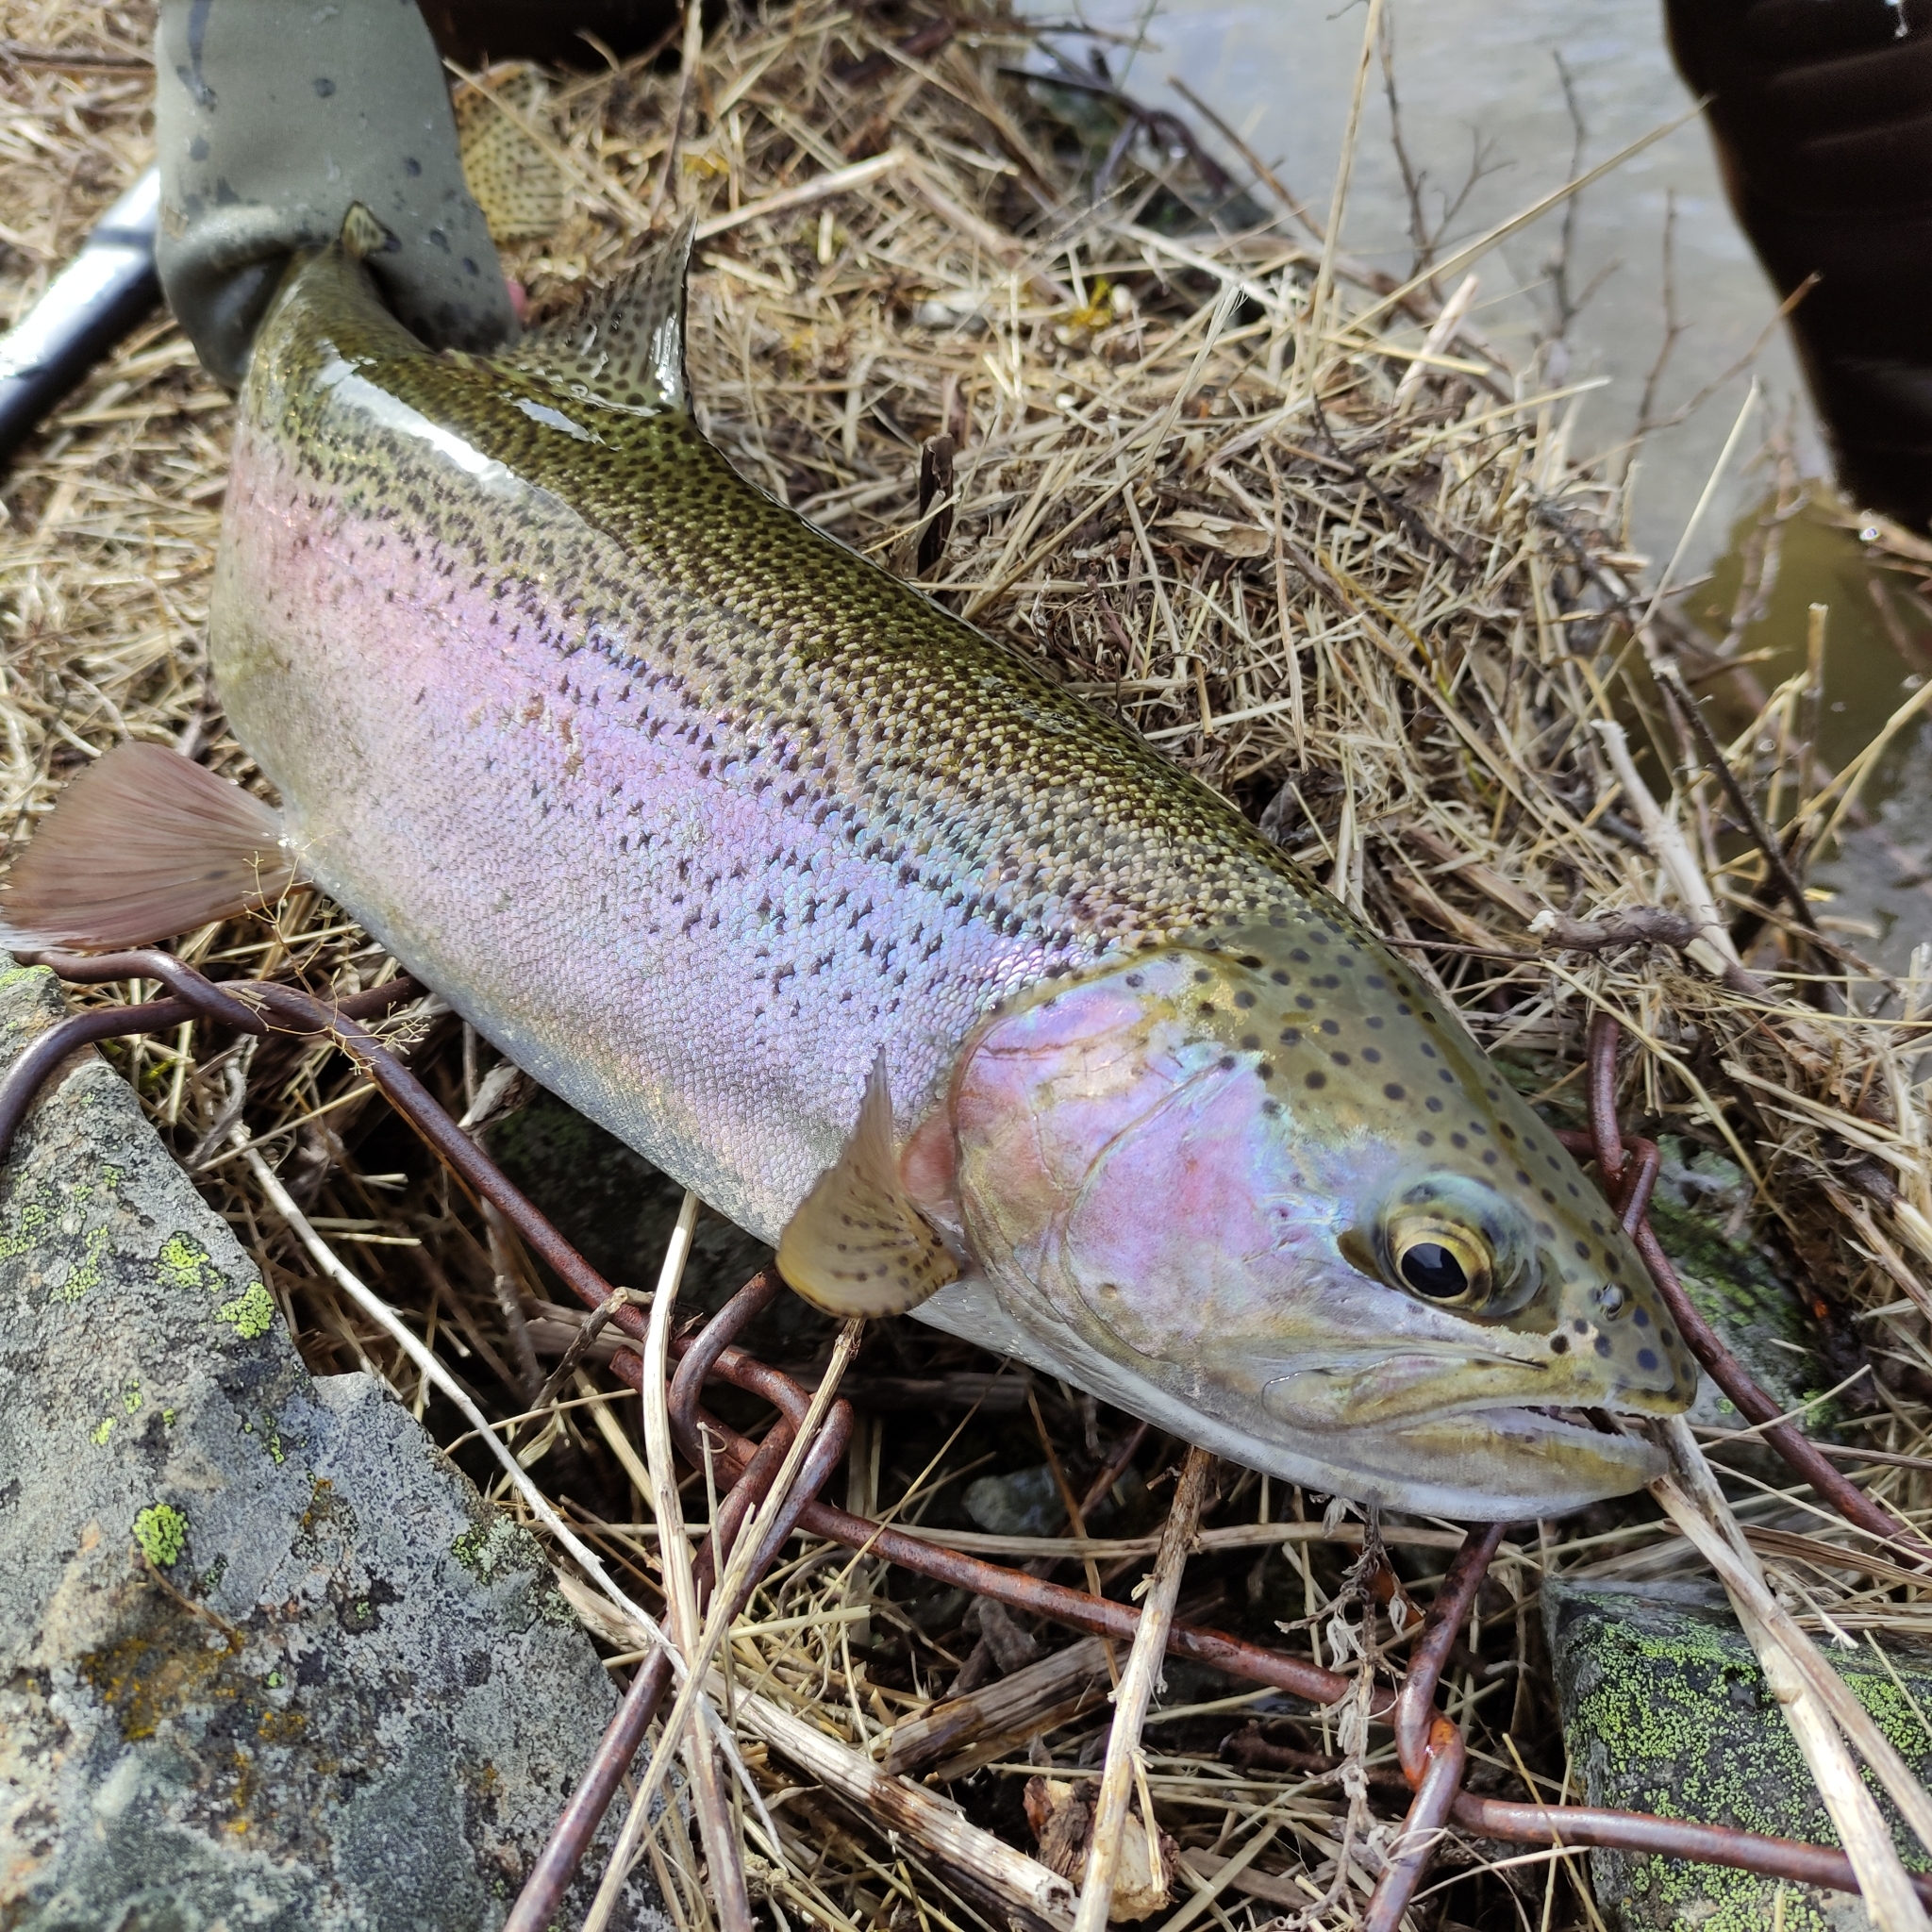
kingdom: Animalia
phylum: Chordata
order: Salmoniformes
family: Salmonidae
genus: Oncorhynchus
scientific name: Oncorhynchus mykiss
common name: Rainbow trout
